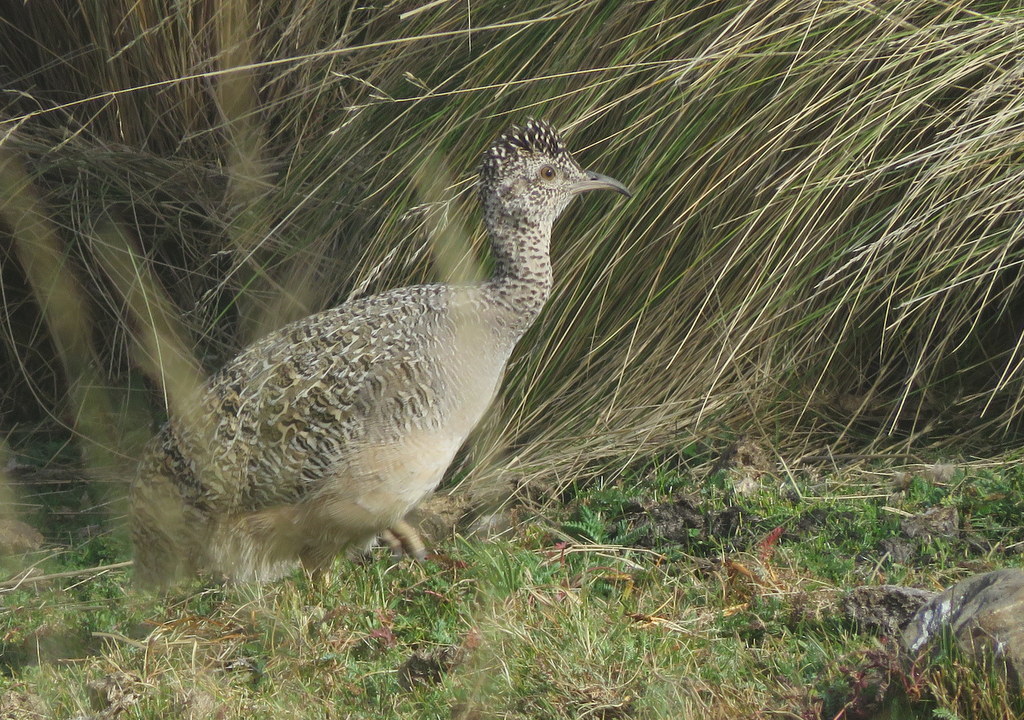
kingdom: Animalia
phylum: Chordata
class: Aves
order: Tinamiformes
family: Tinamidae
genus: Nothoprocta
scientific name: Nothoprocta ornata
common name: Ornate tinamou
